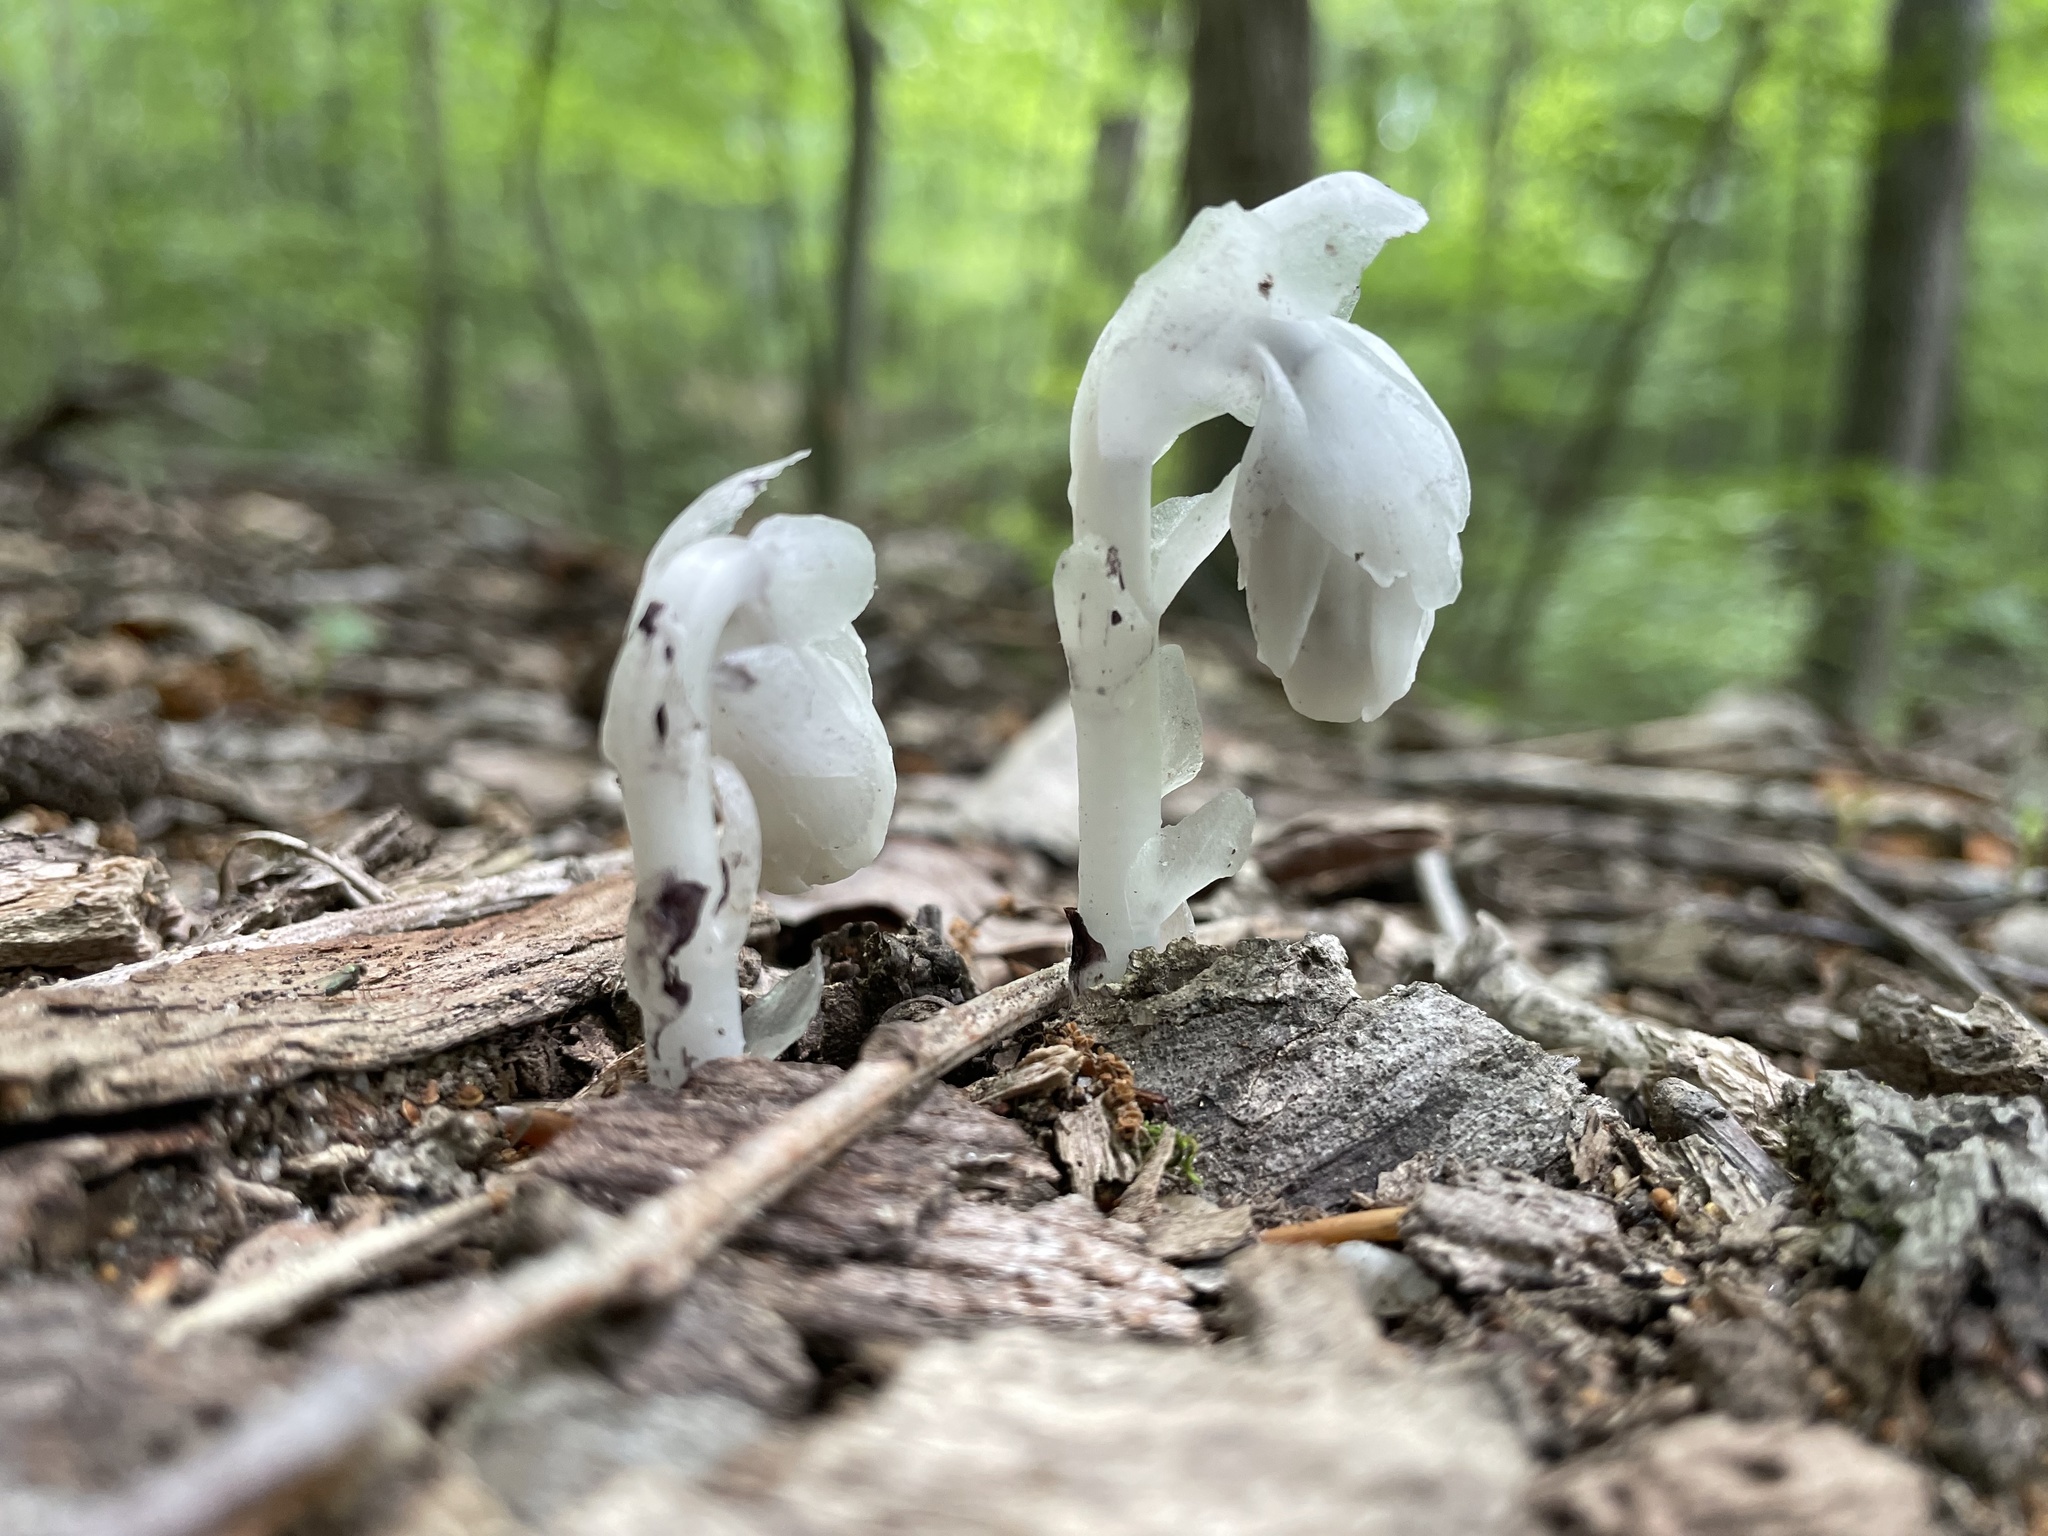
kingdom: Plantae
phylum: Tracheophyta
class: Magnoliopsida
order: Ericales
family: Ericaceae
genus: Monotropa
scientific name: Monotropa uniflora
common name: Convulsion root
